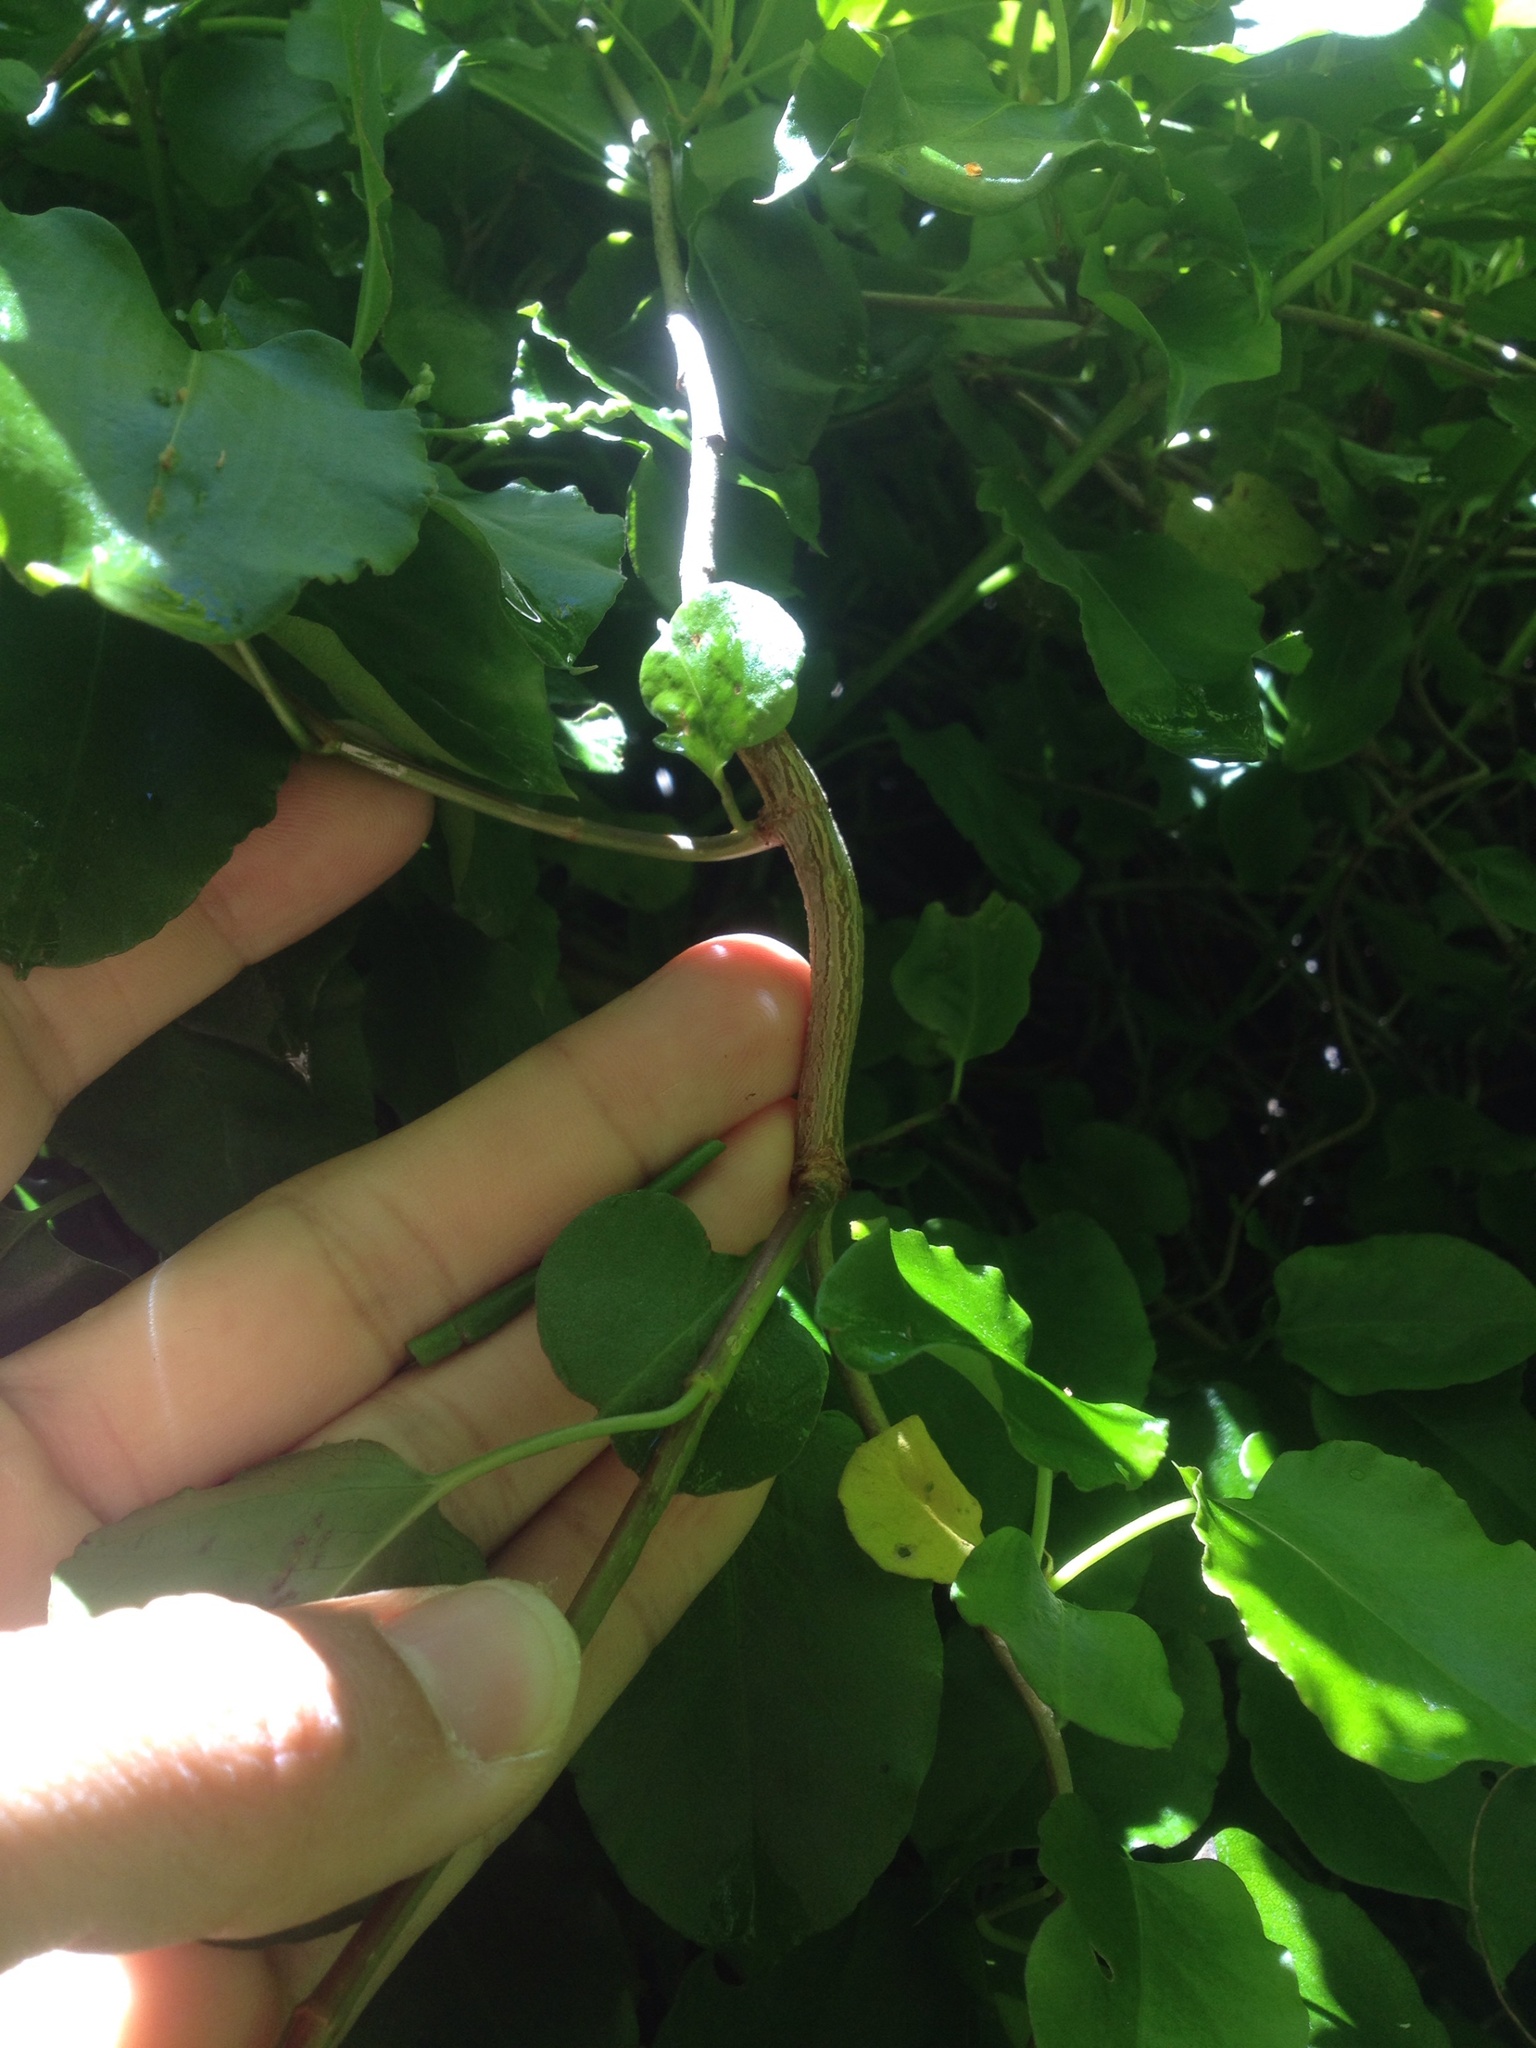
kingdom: Animalia
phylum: Arthropoda
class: Insecta
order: Lepidoptera
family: Thyrididae
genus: Morova
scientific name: Morova subfasciata
